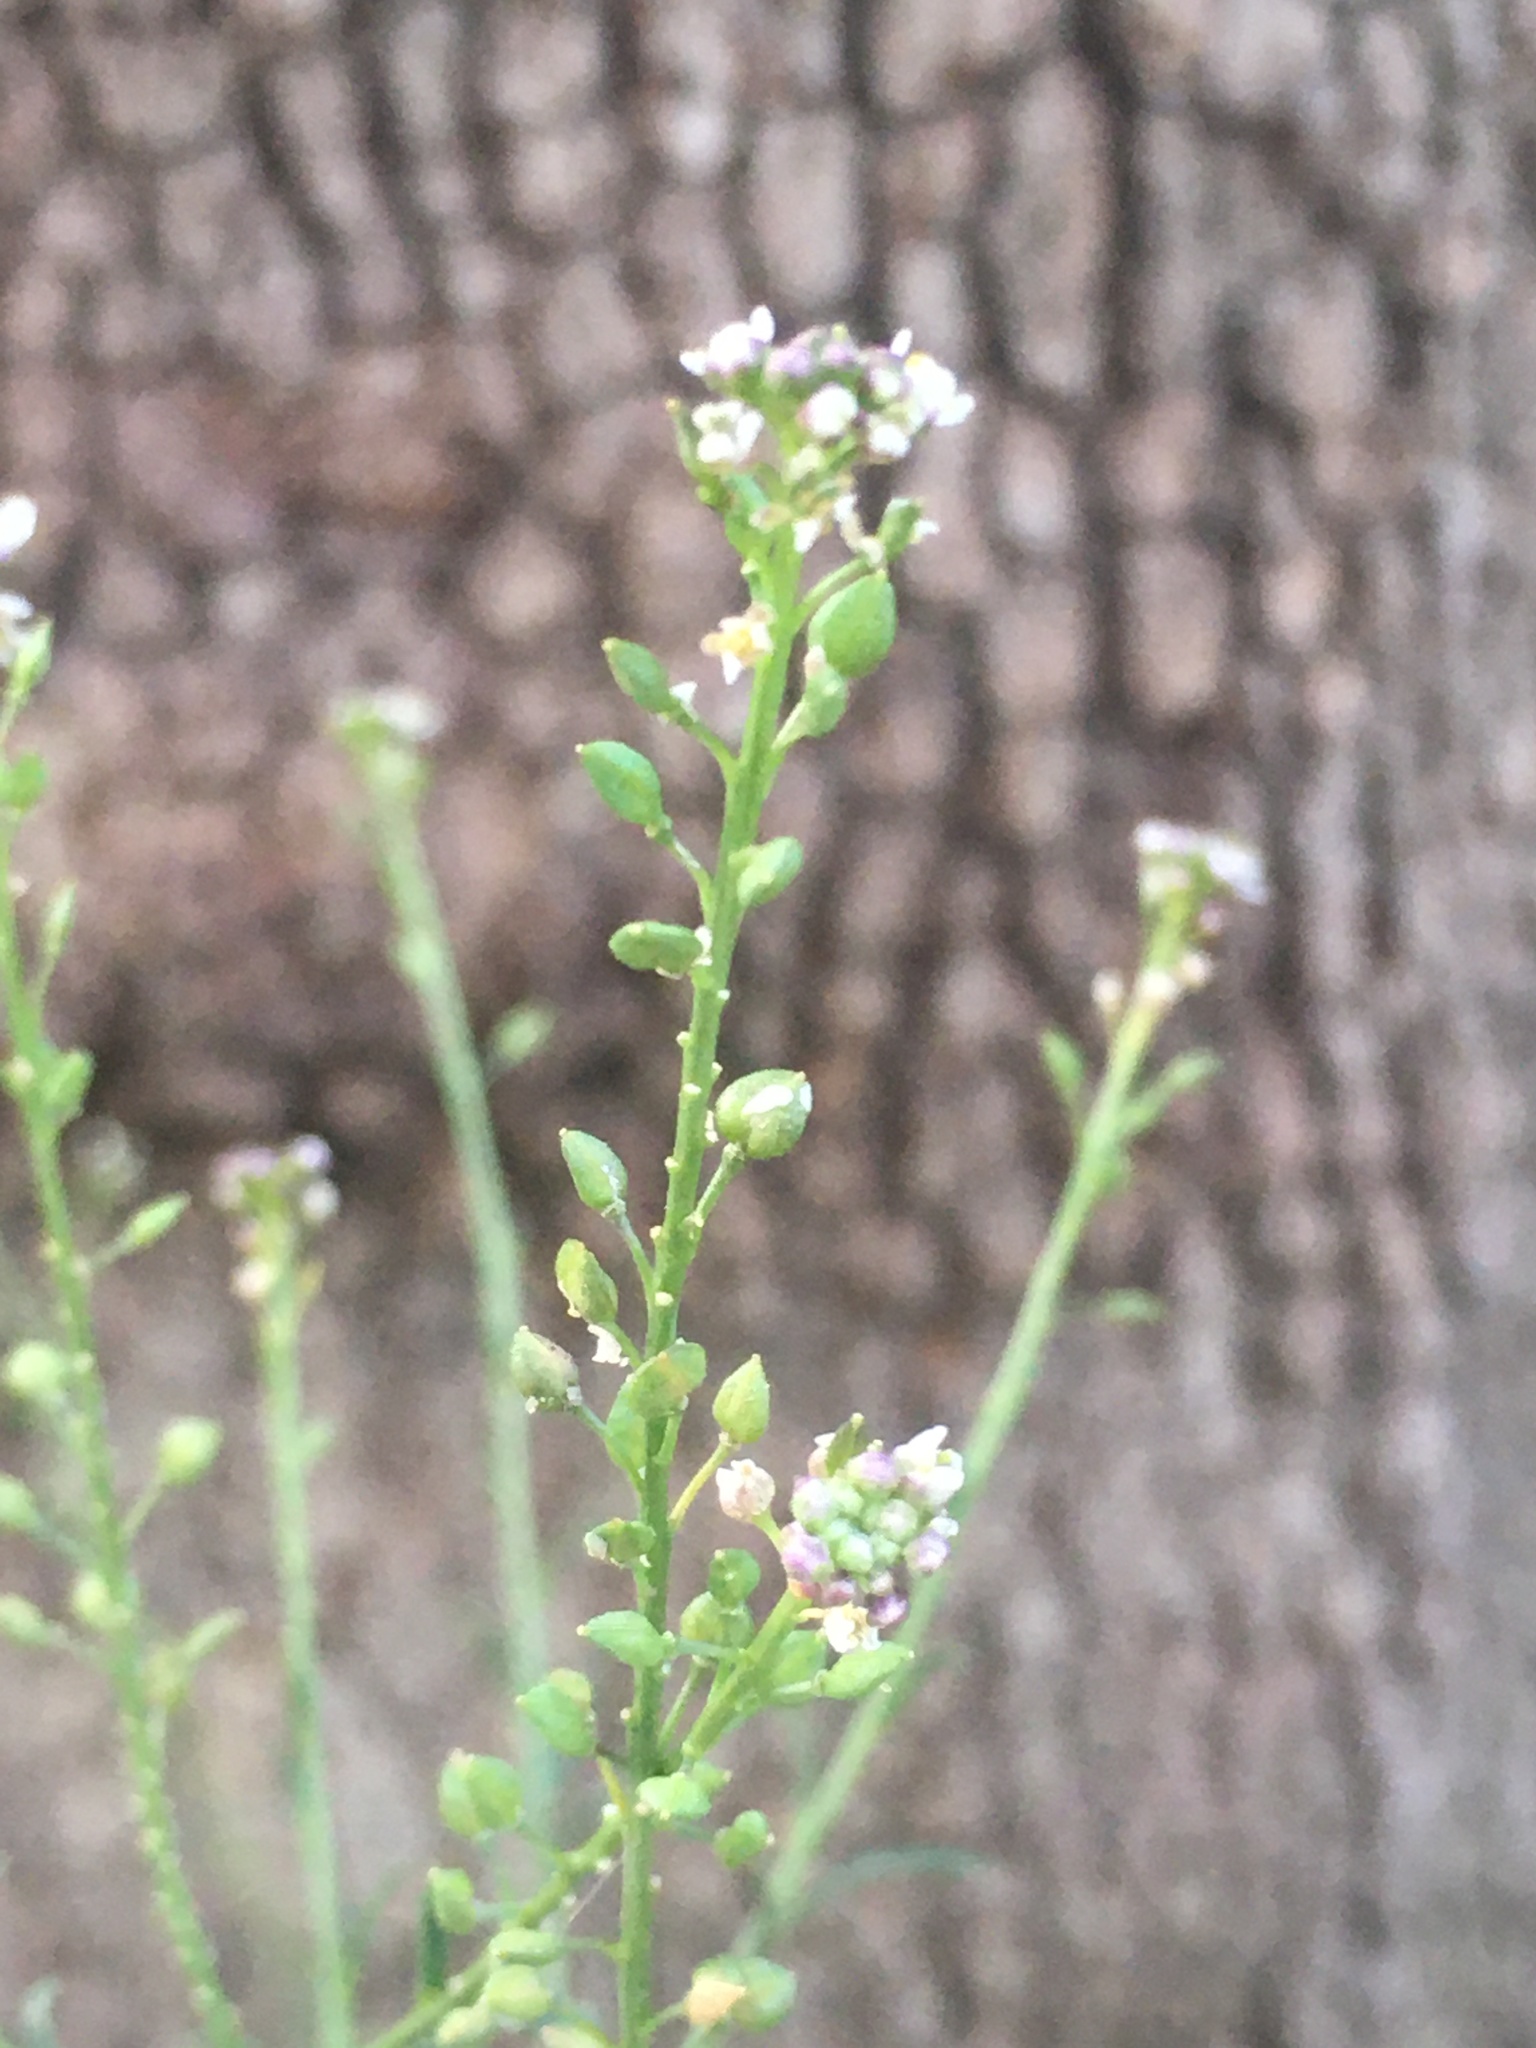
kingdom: Plantae
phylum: Tracheophyta
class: Magnoliopsida
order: Brassicales
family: Brassicaceae
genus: Lepidium
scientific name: Lepidium graminifolium
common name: Tall pepperwort
